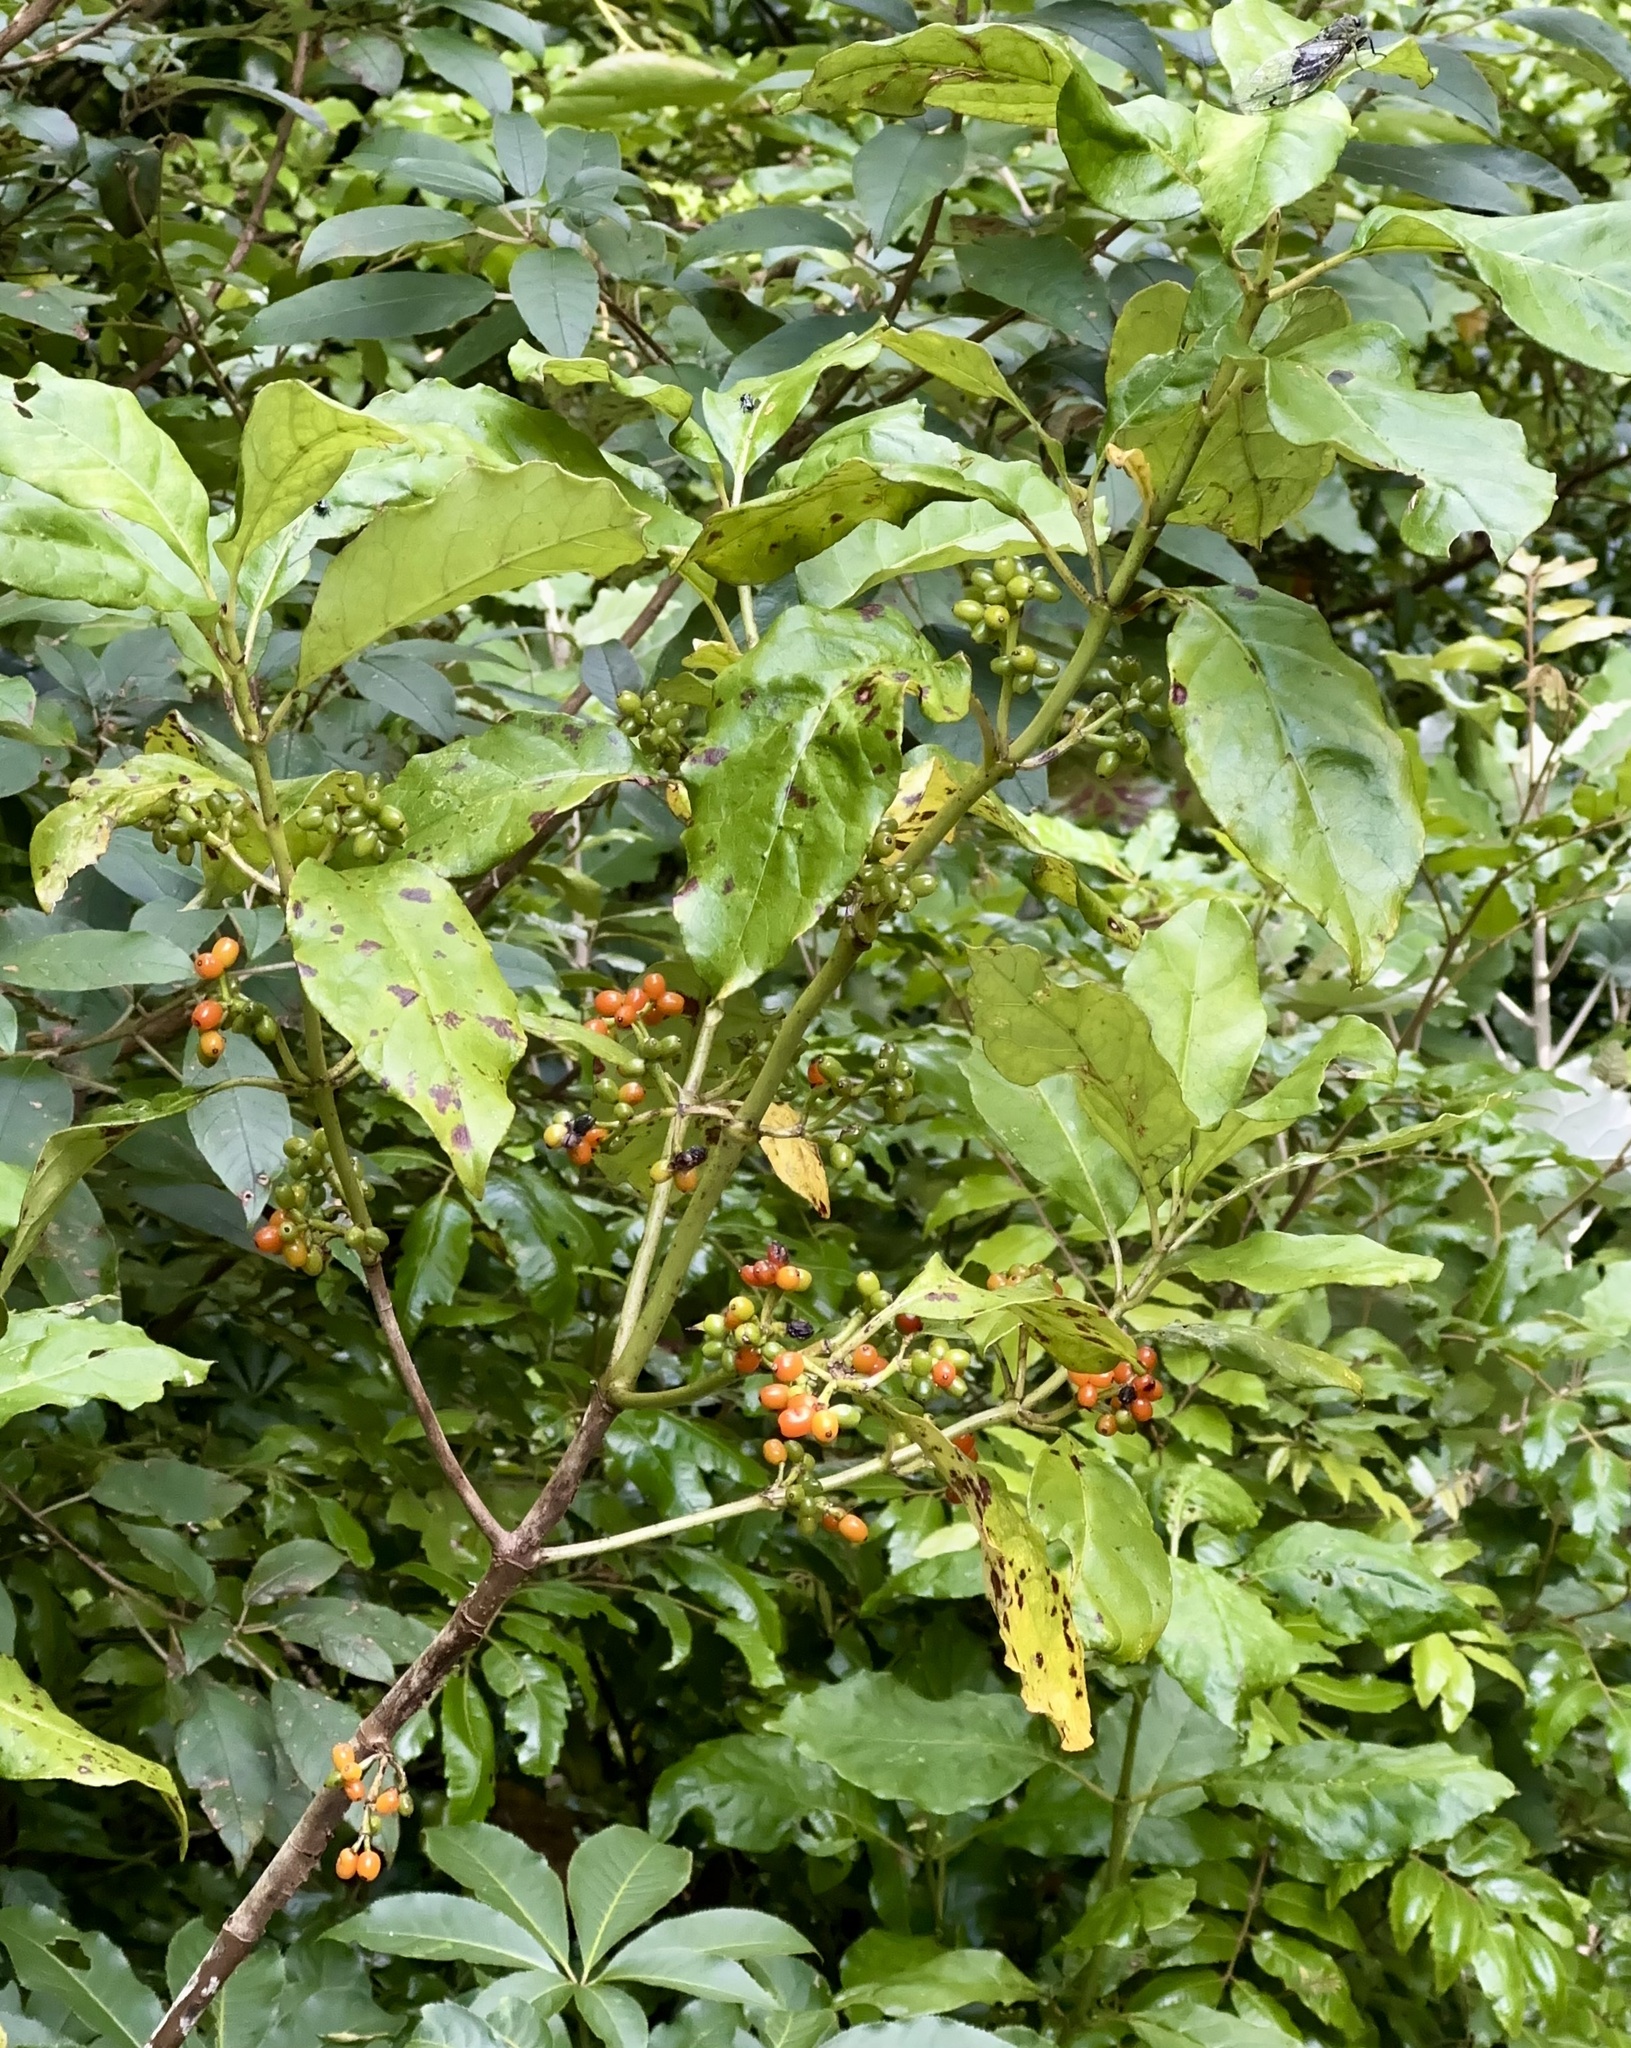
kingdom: Plantae
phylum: Tracheophyta
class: Magnoliopsida
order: Gentianales
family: Rubiaceae
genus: Coprosma
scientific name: Coprosma autumnalis
